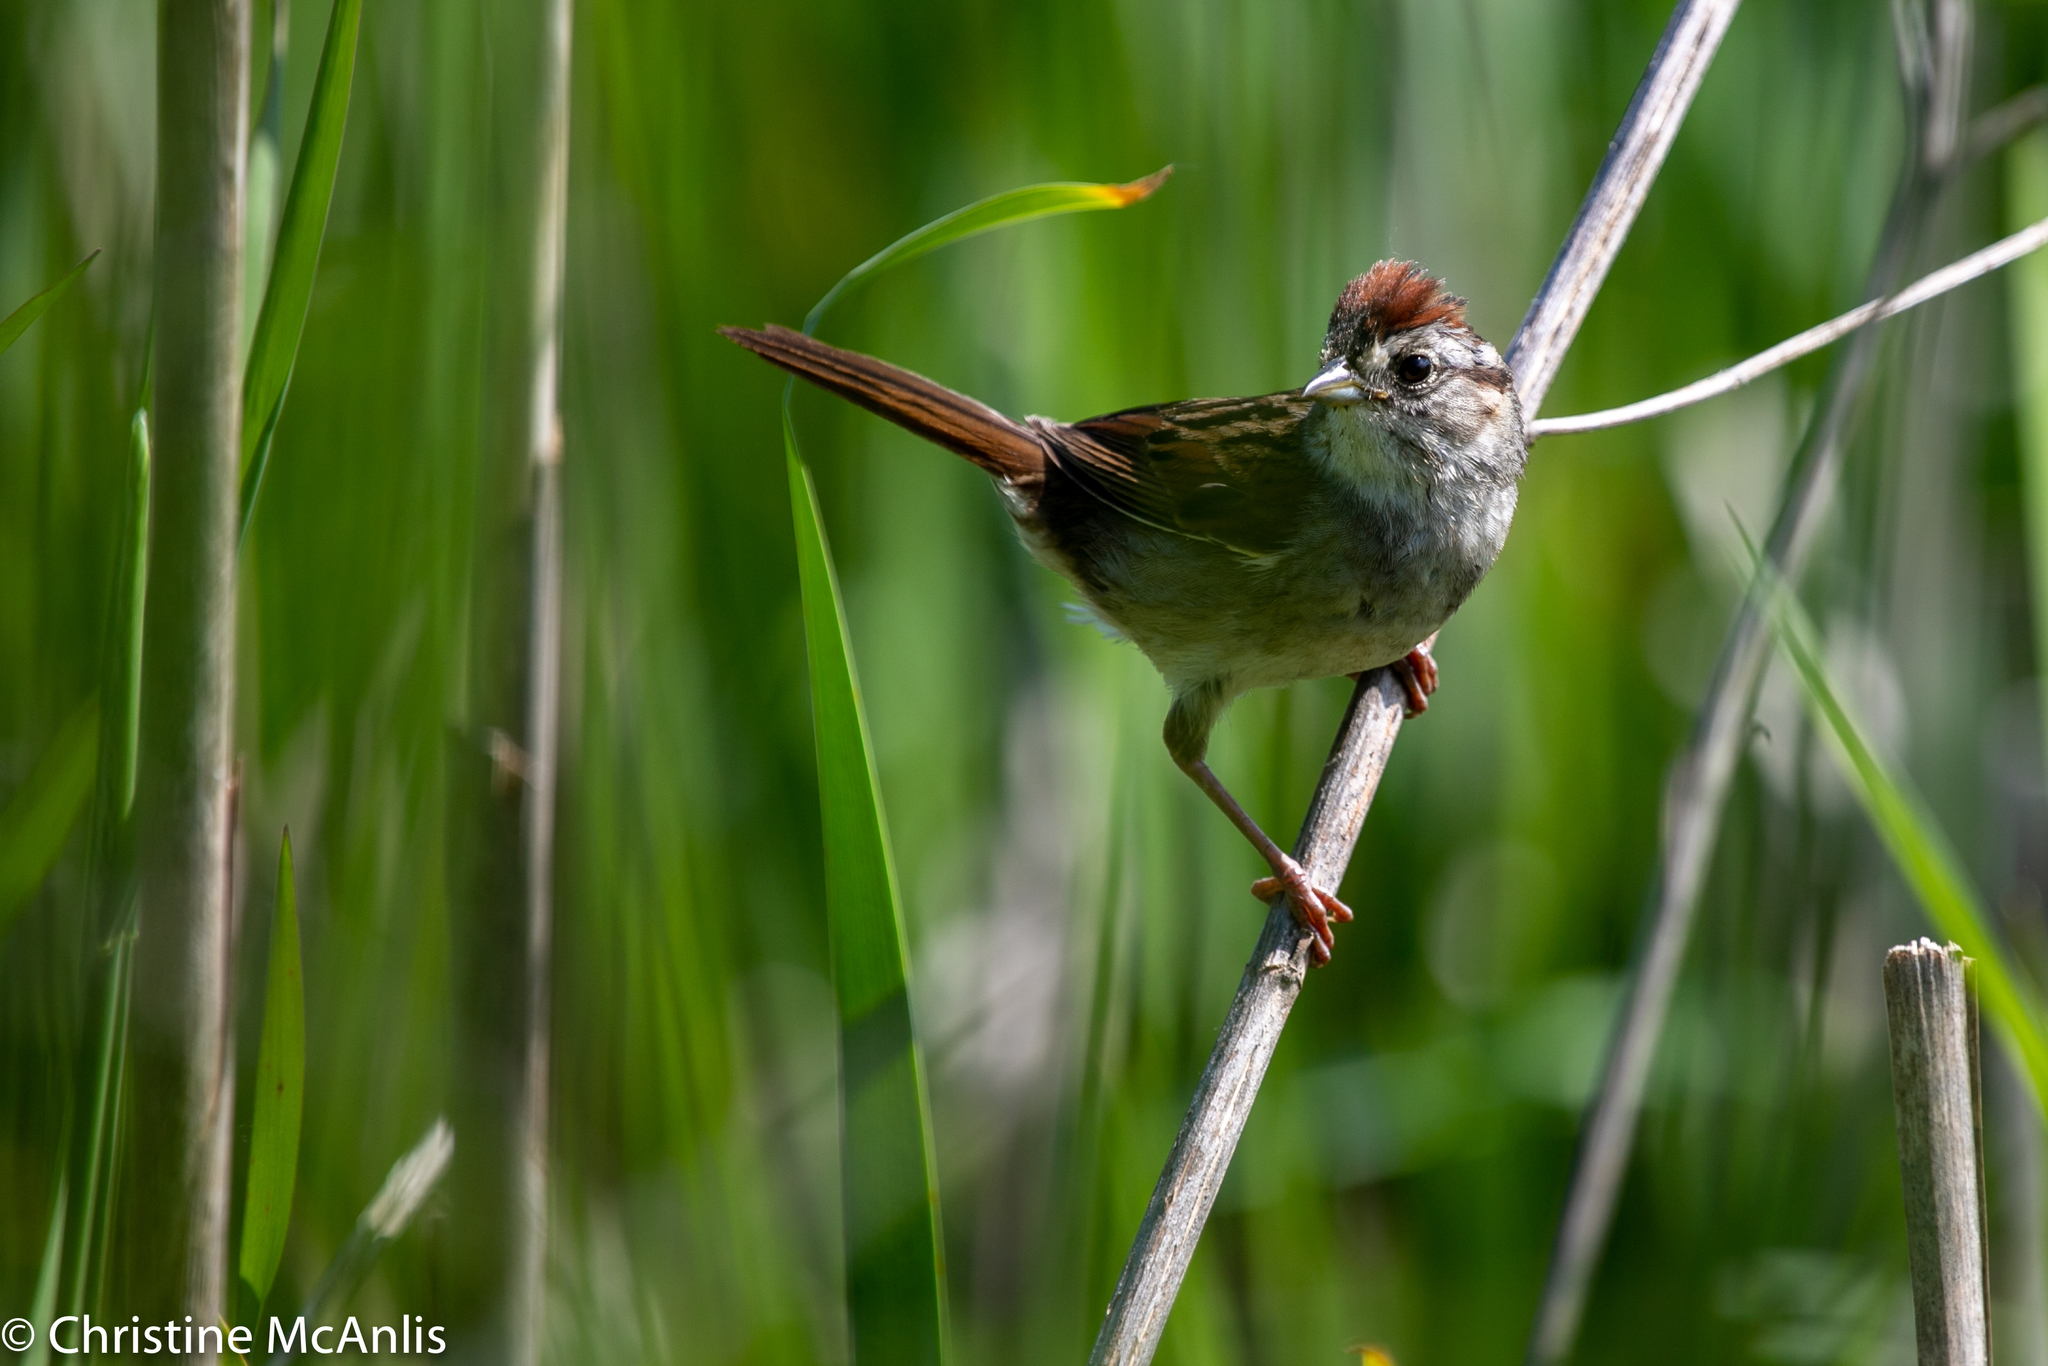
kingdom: Animalia
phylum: Chordata
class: Aves
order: Passeriformes
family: Passerellidae
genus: Melospiza
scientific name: Melospiza georgiana
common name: Swamp sparrow
